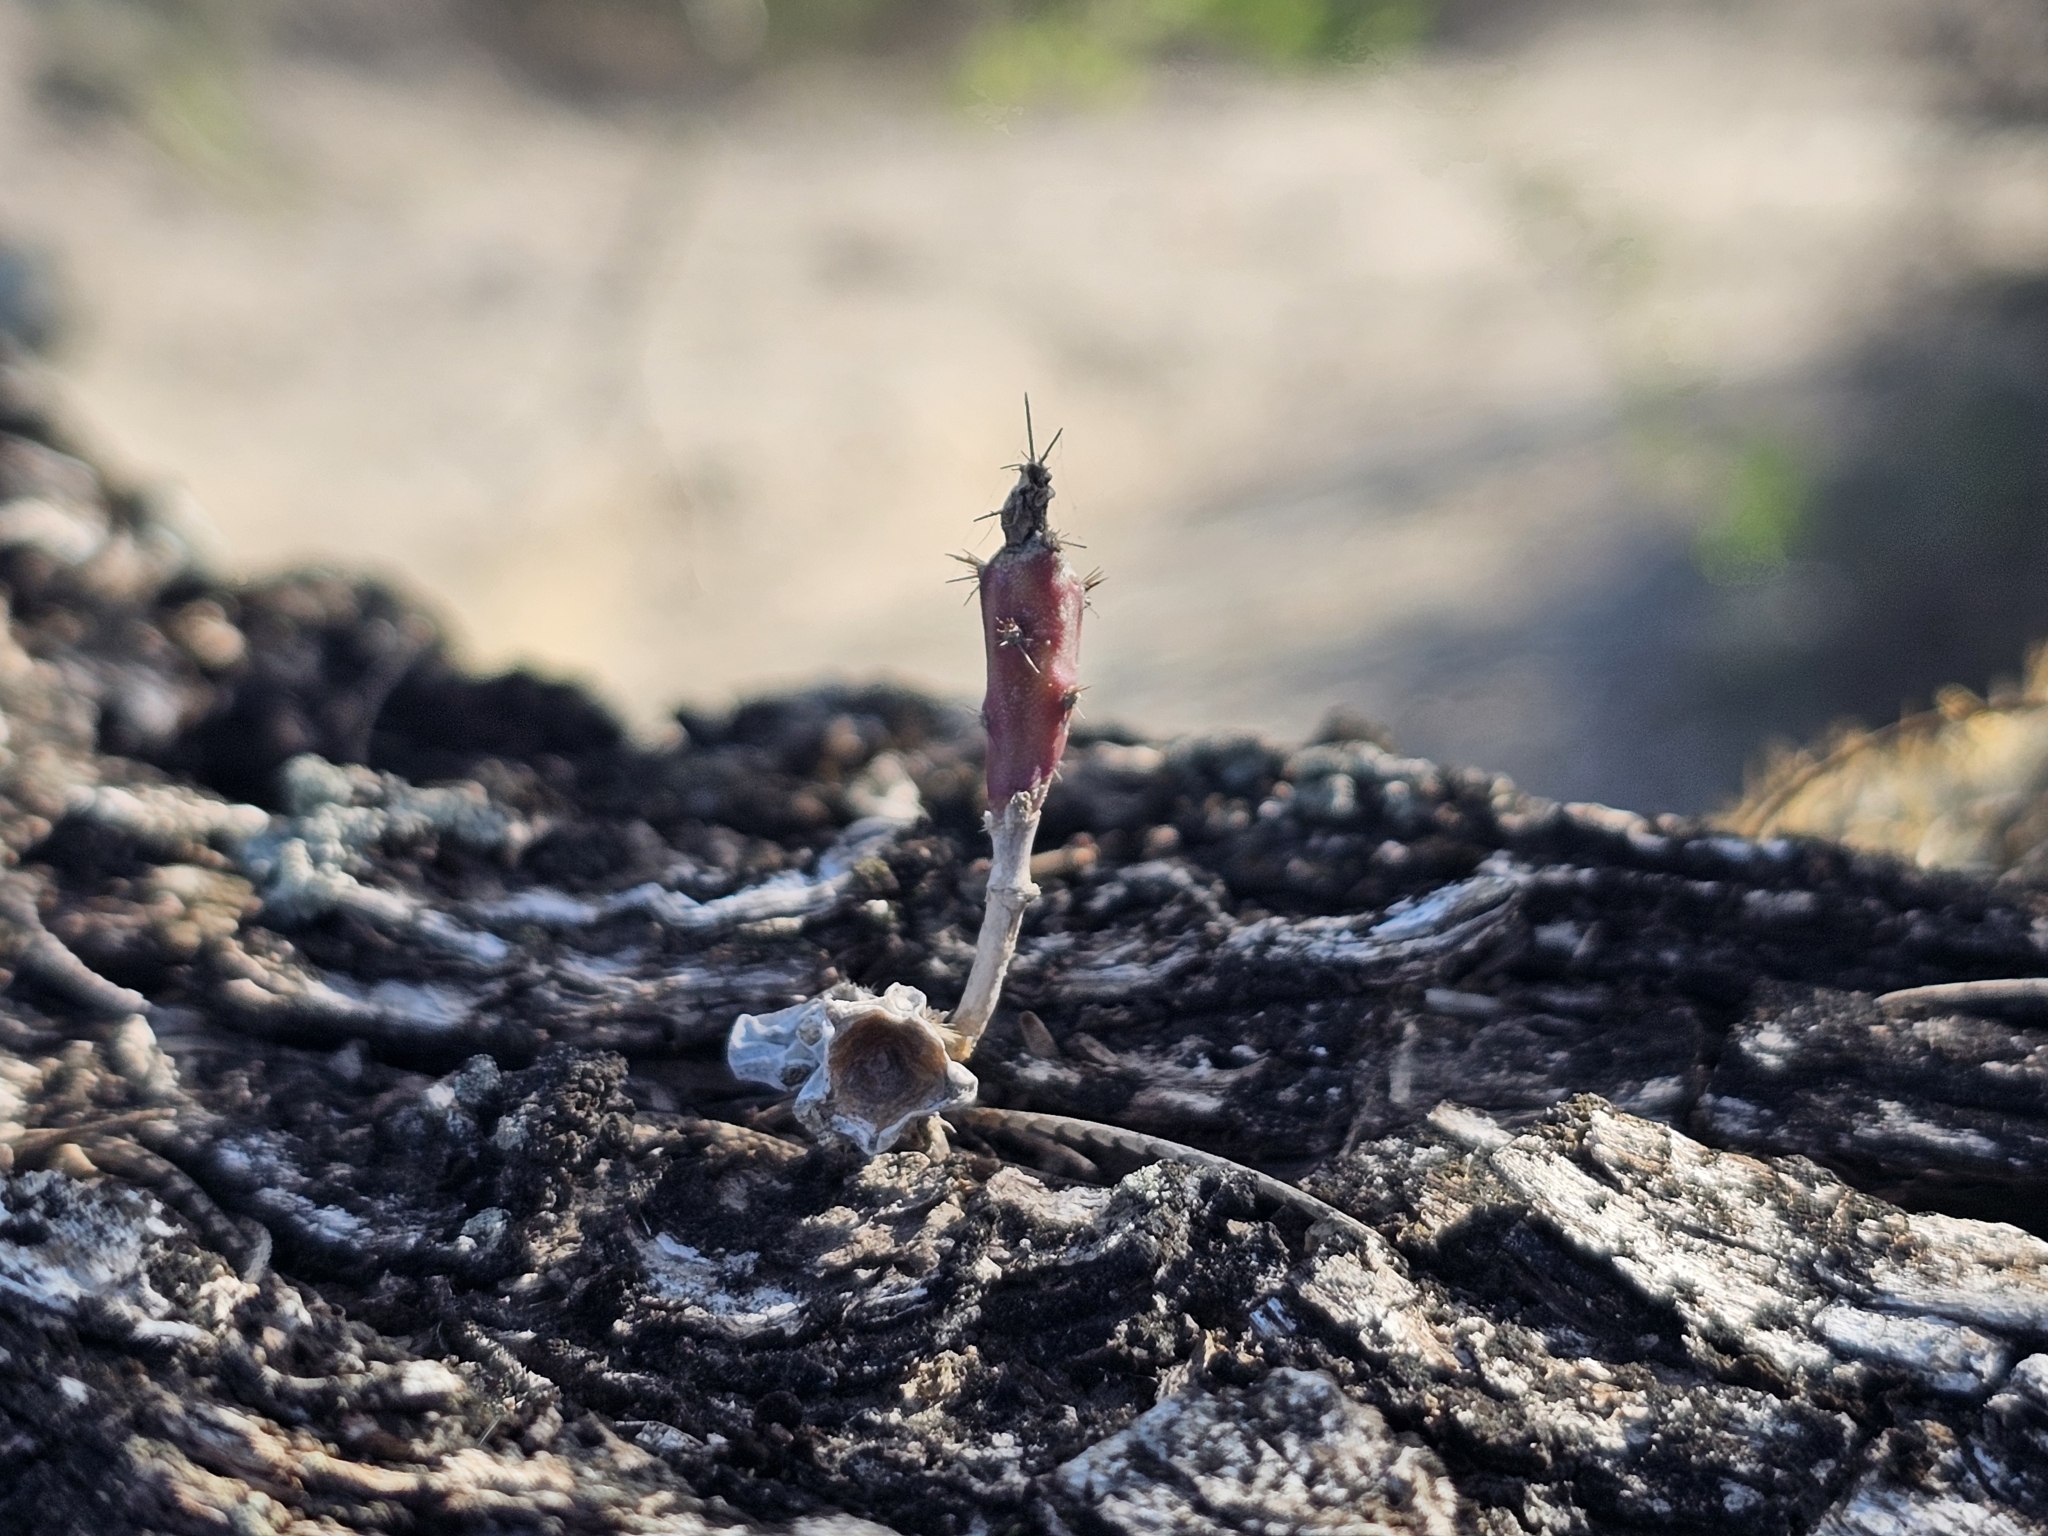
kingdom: Plantae
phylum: Tracheophyta
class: Magnoliopsida
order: Caryophyllales
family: Cactaceae
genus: Cylindropuntia
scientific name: Cylindropuntia leptocaulis
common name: Christmas cactus
